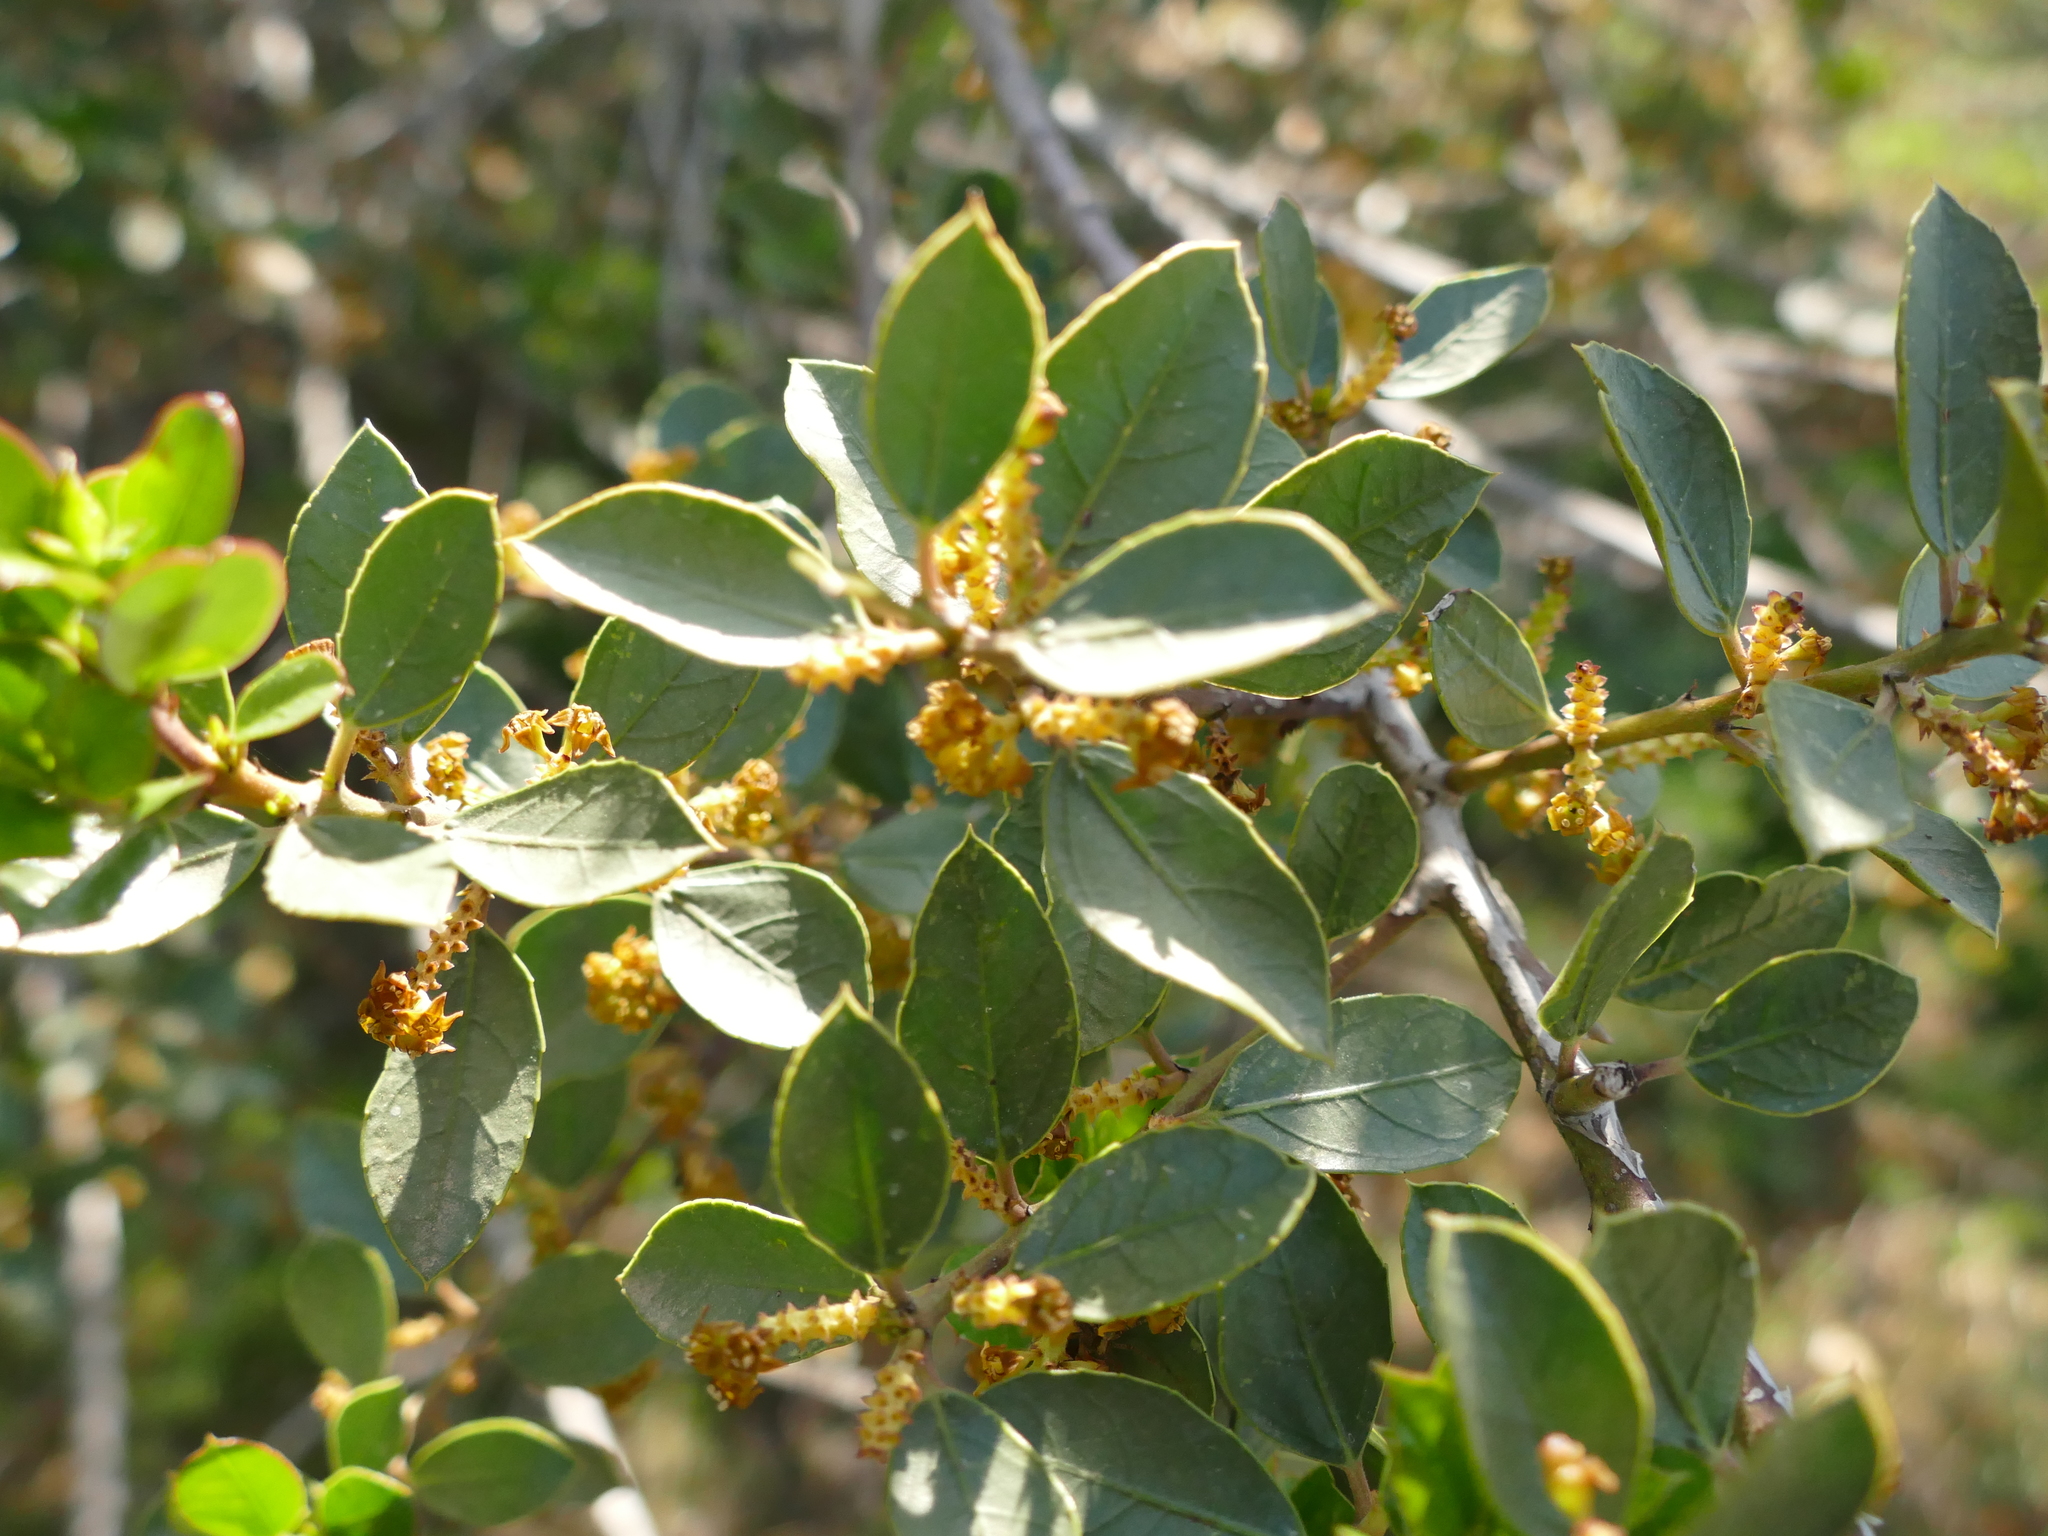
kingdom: Plantae
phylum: Tracheophyta
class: Magnoliopsida
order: Rosales
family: Rhamnaceae
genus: Rhamnus
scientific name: Rhamnus alaternus
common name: Mediterranean buckthorn
